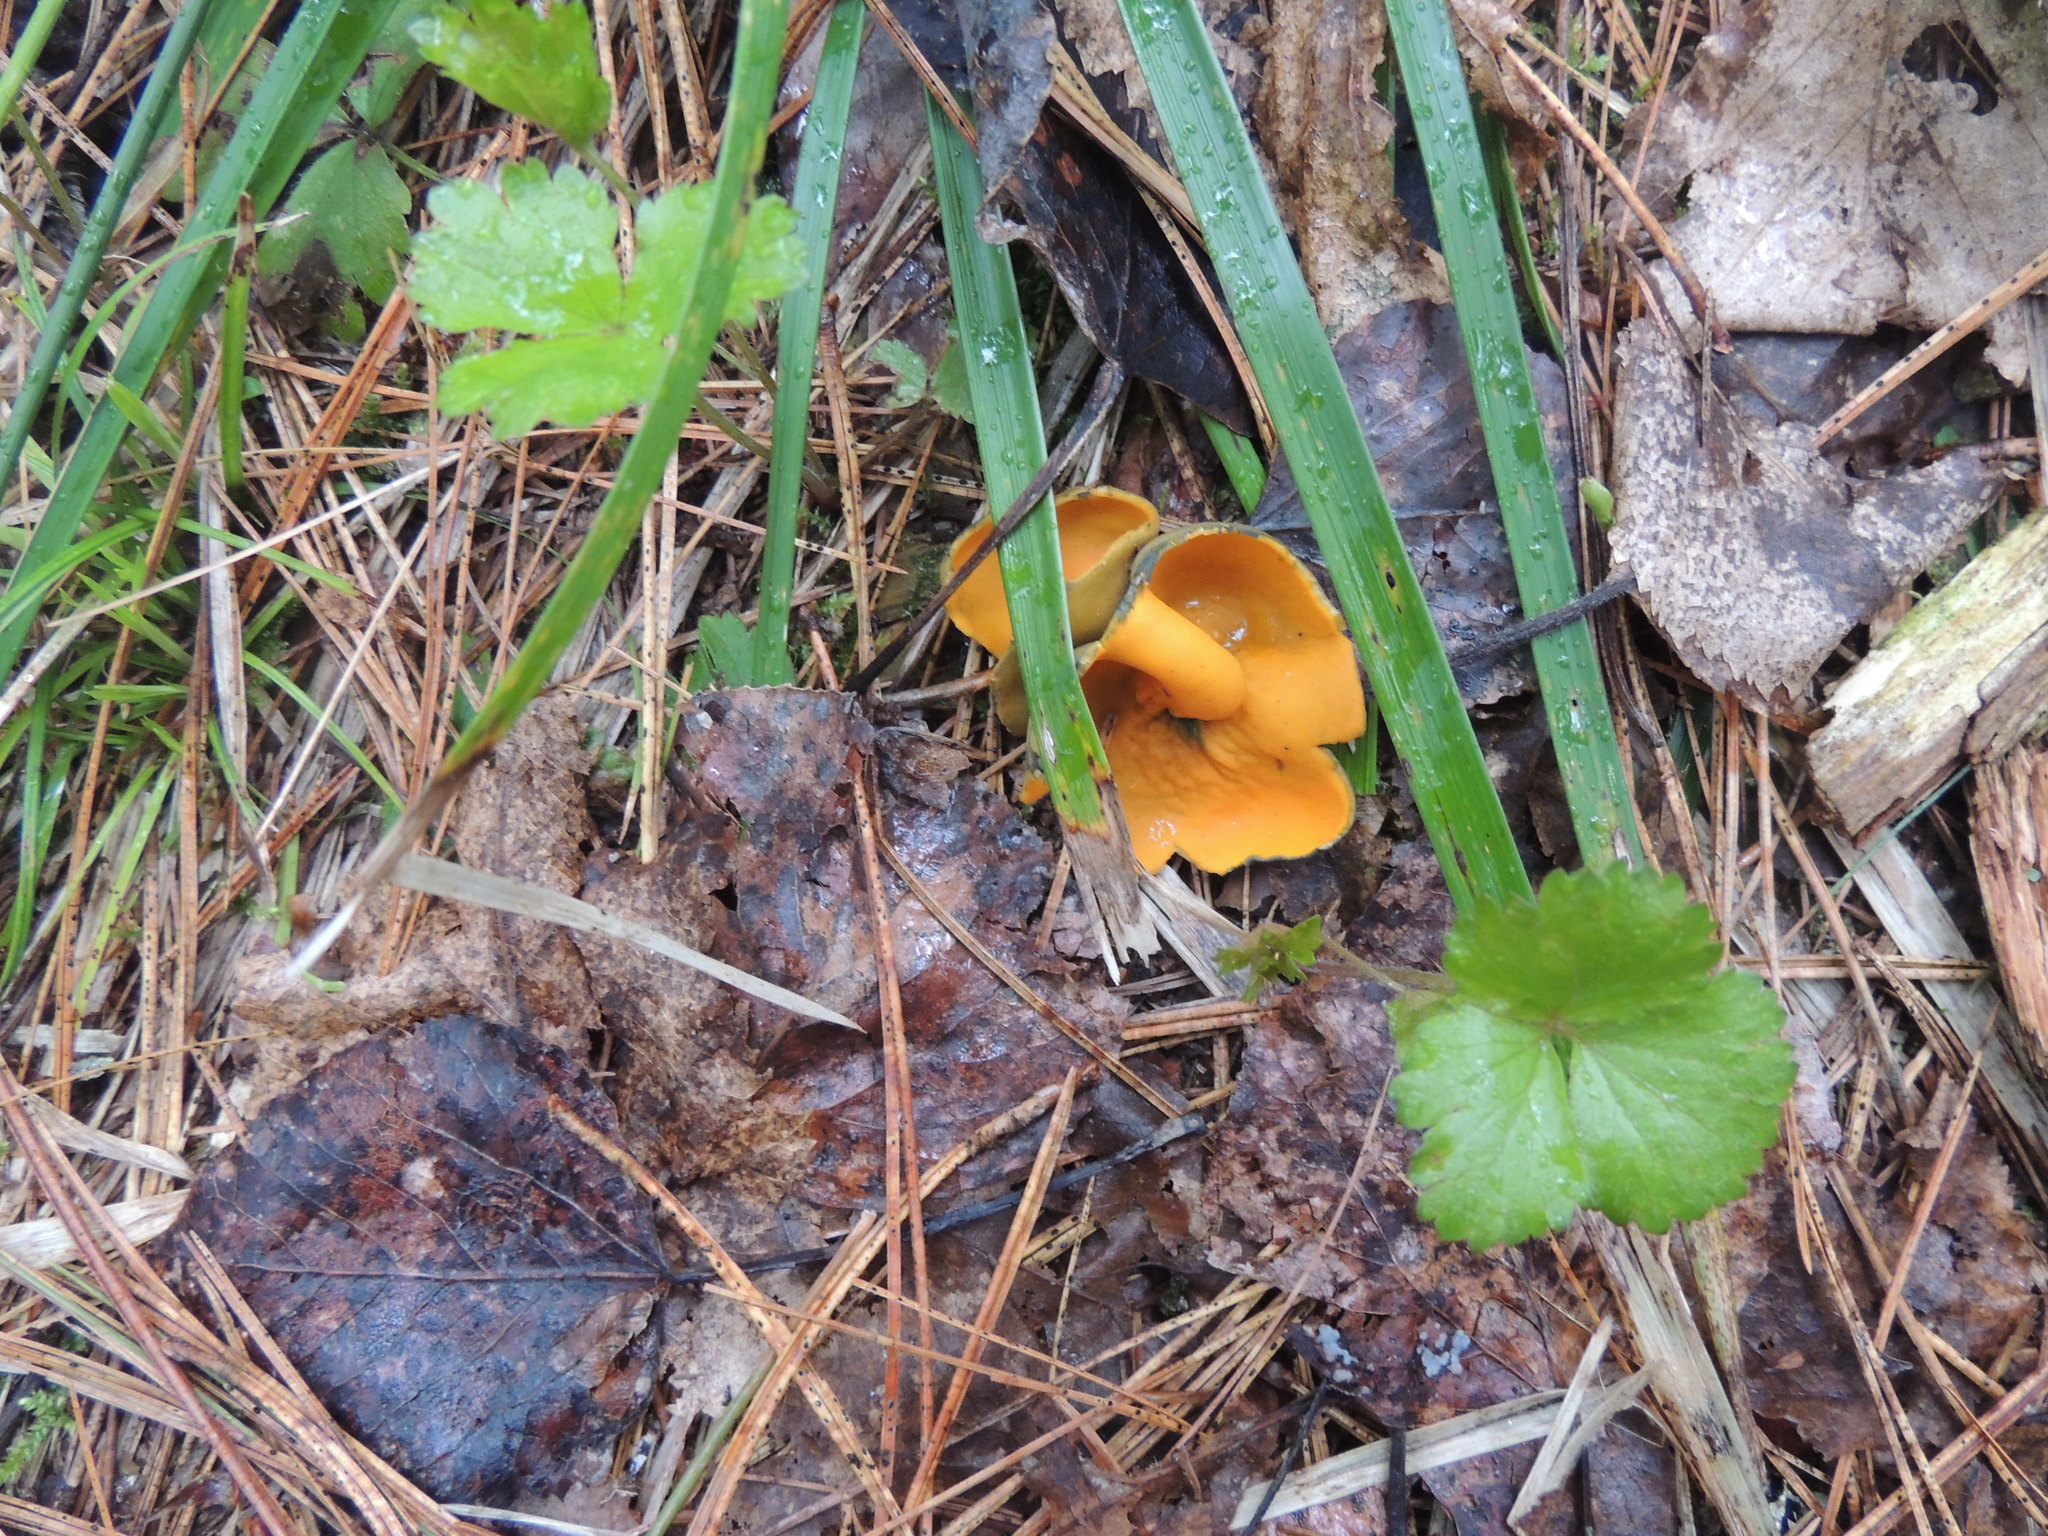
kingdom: Fungi
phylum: Ascomycota
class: Pezizomycetes
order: Pezizales
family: Caloscyphaceae
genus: Caloscypha
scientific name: Caloscypha fulgens
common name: Golden cup
